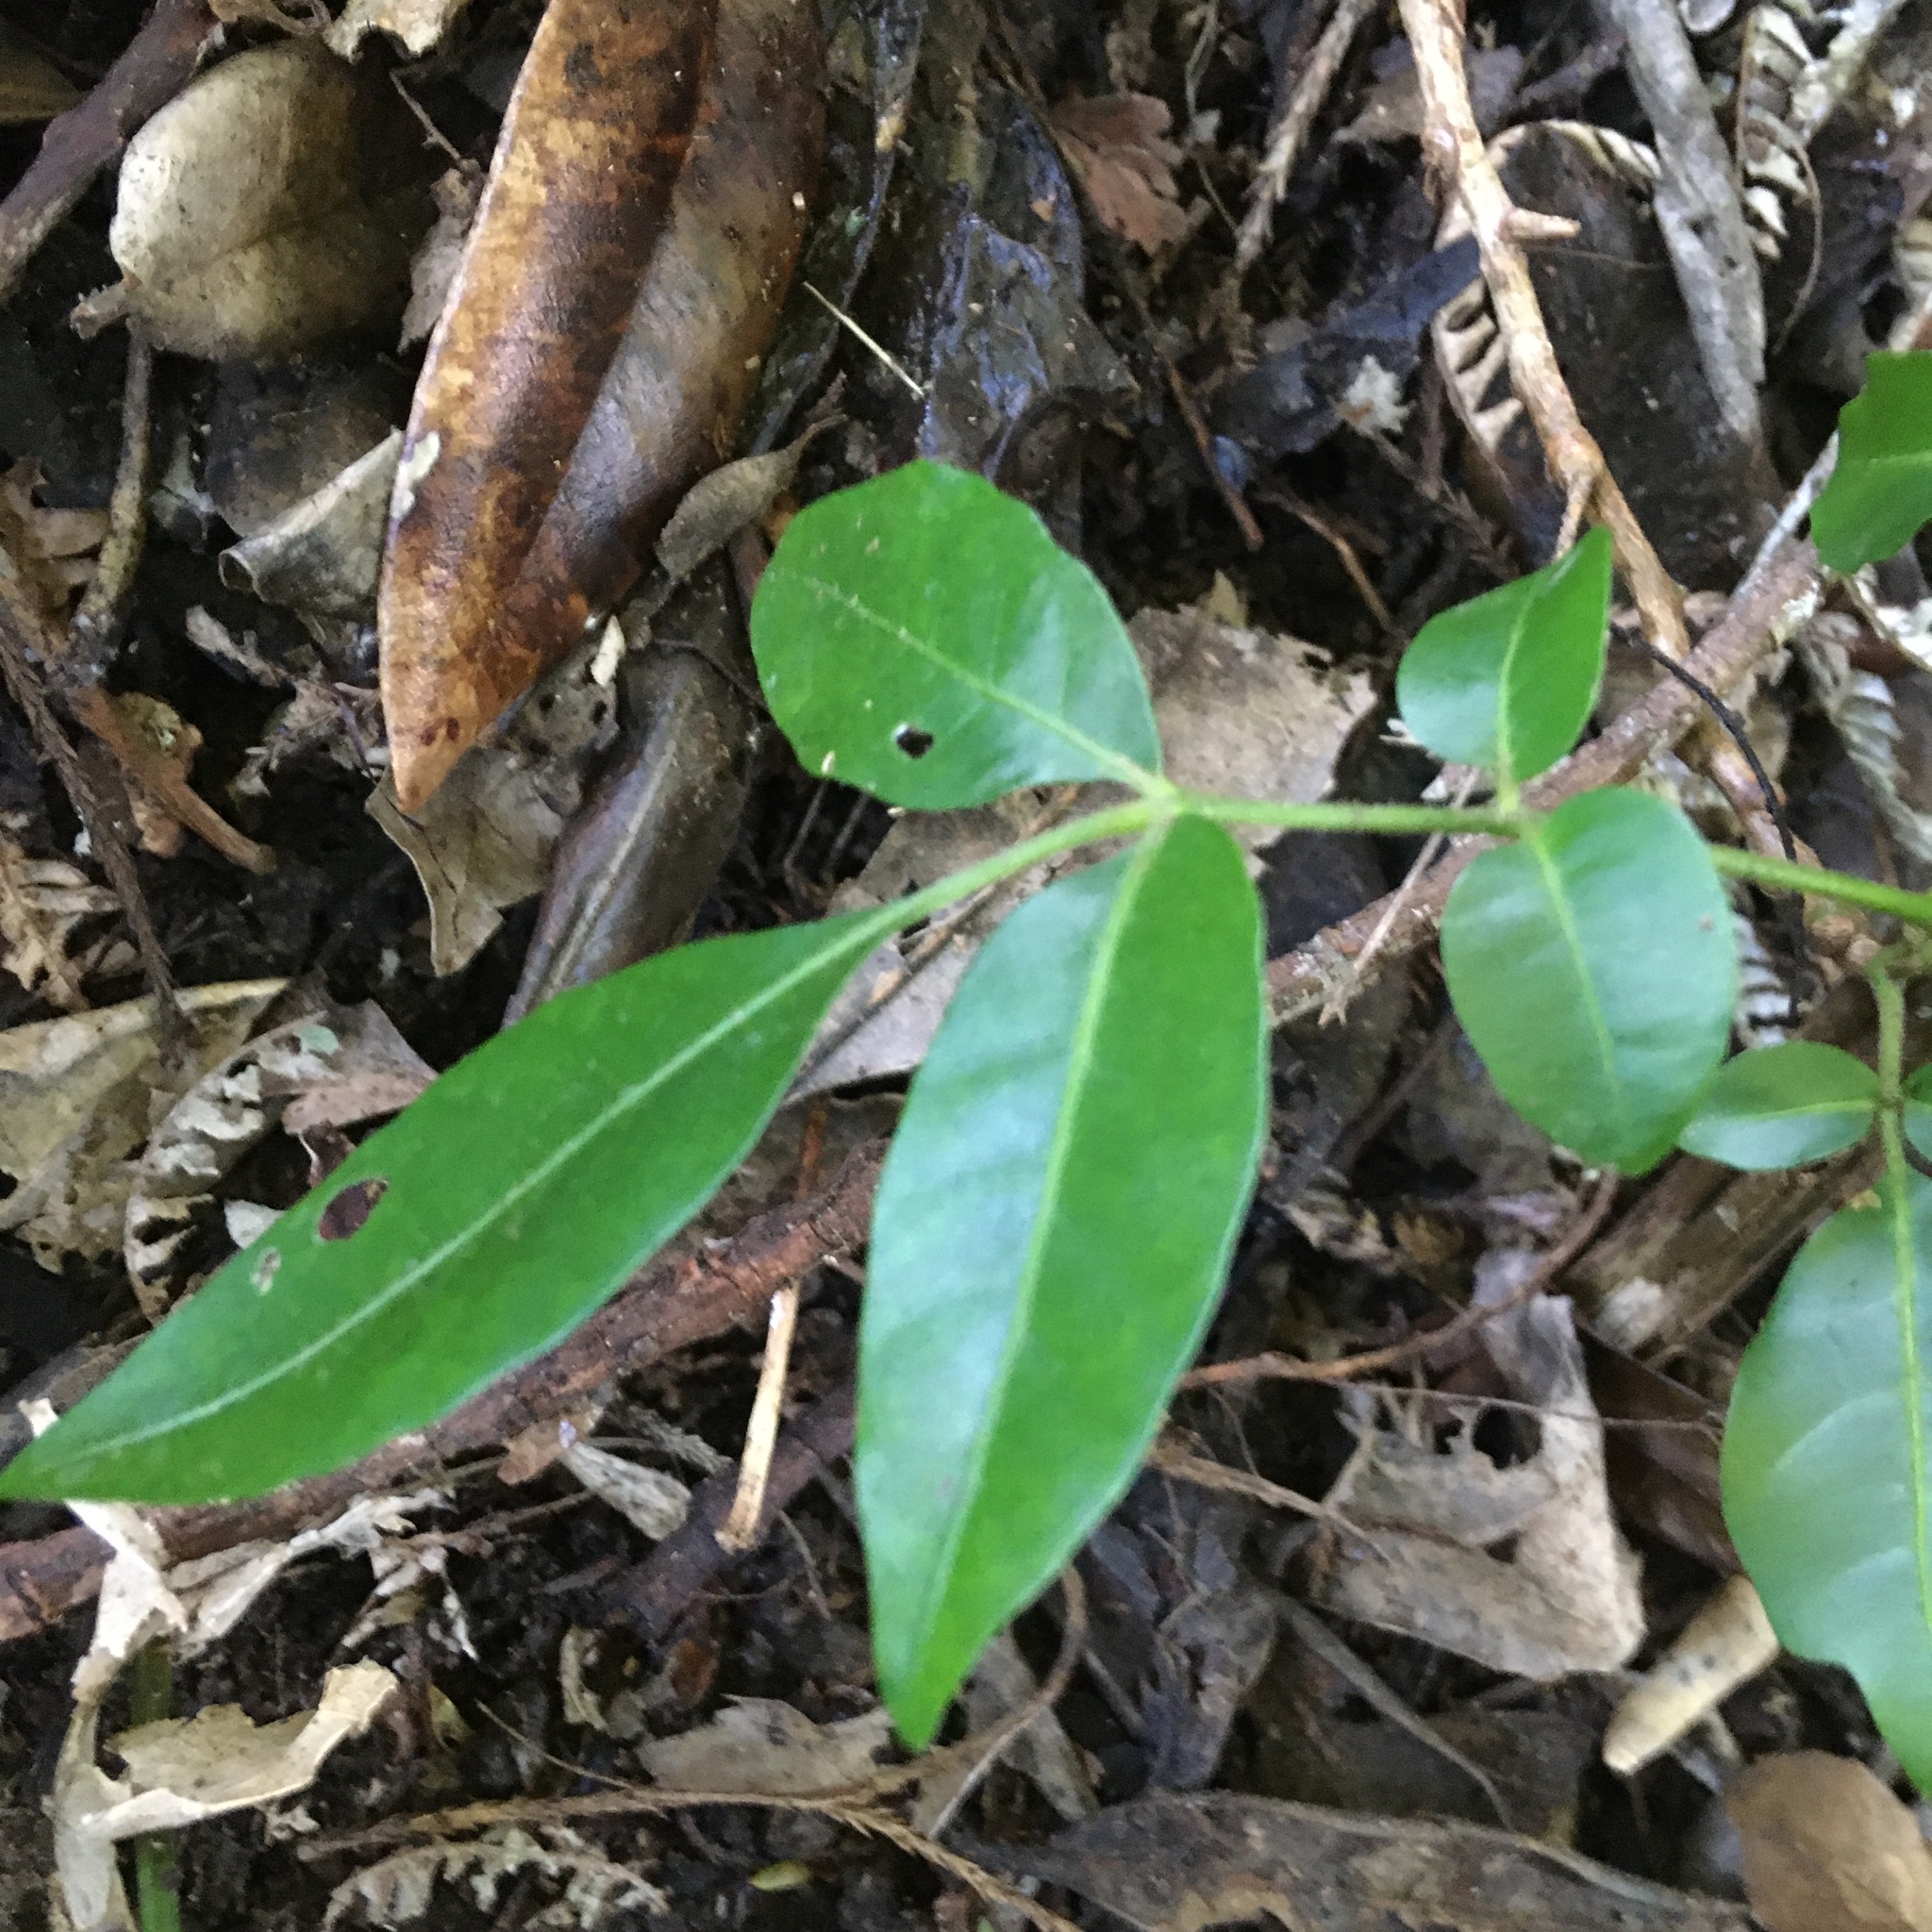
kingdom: Plantae
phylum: Tracheophyta
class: Magnoliopsida
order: Sapindales
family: Meliaceae
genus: Didymocheton
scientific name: Didymocheton spectabilis
